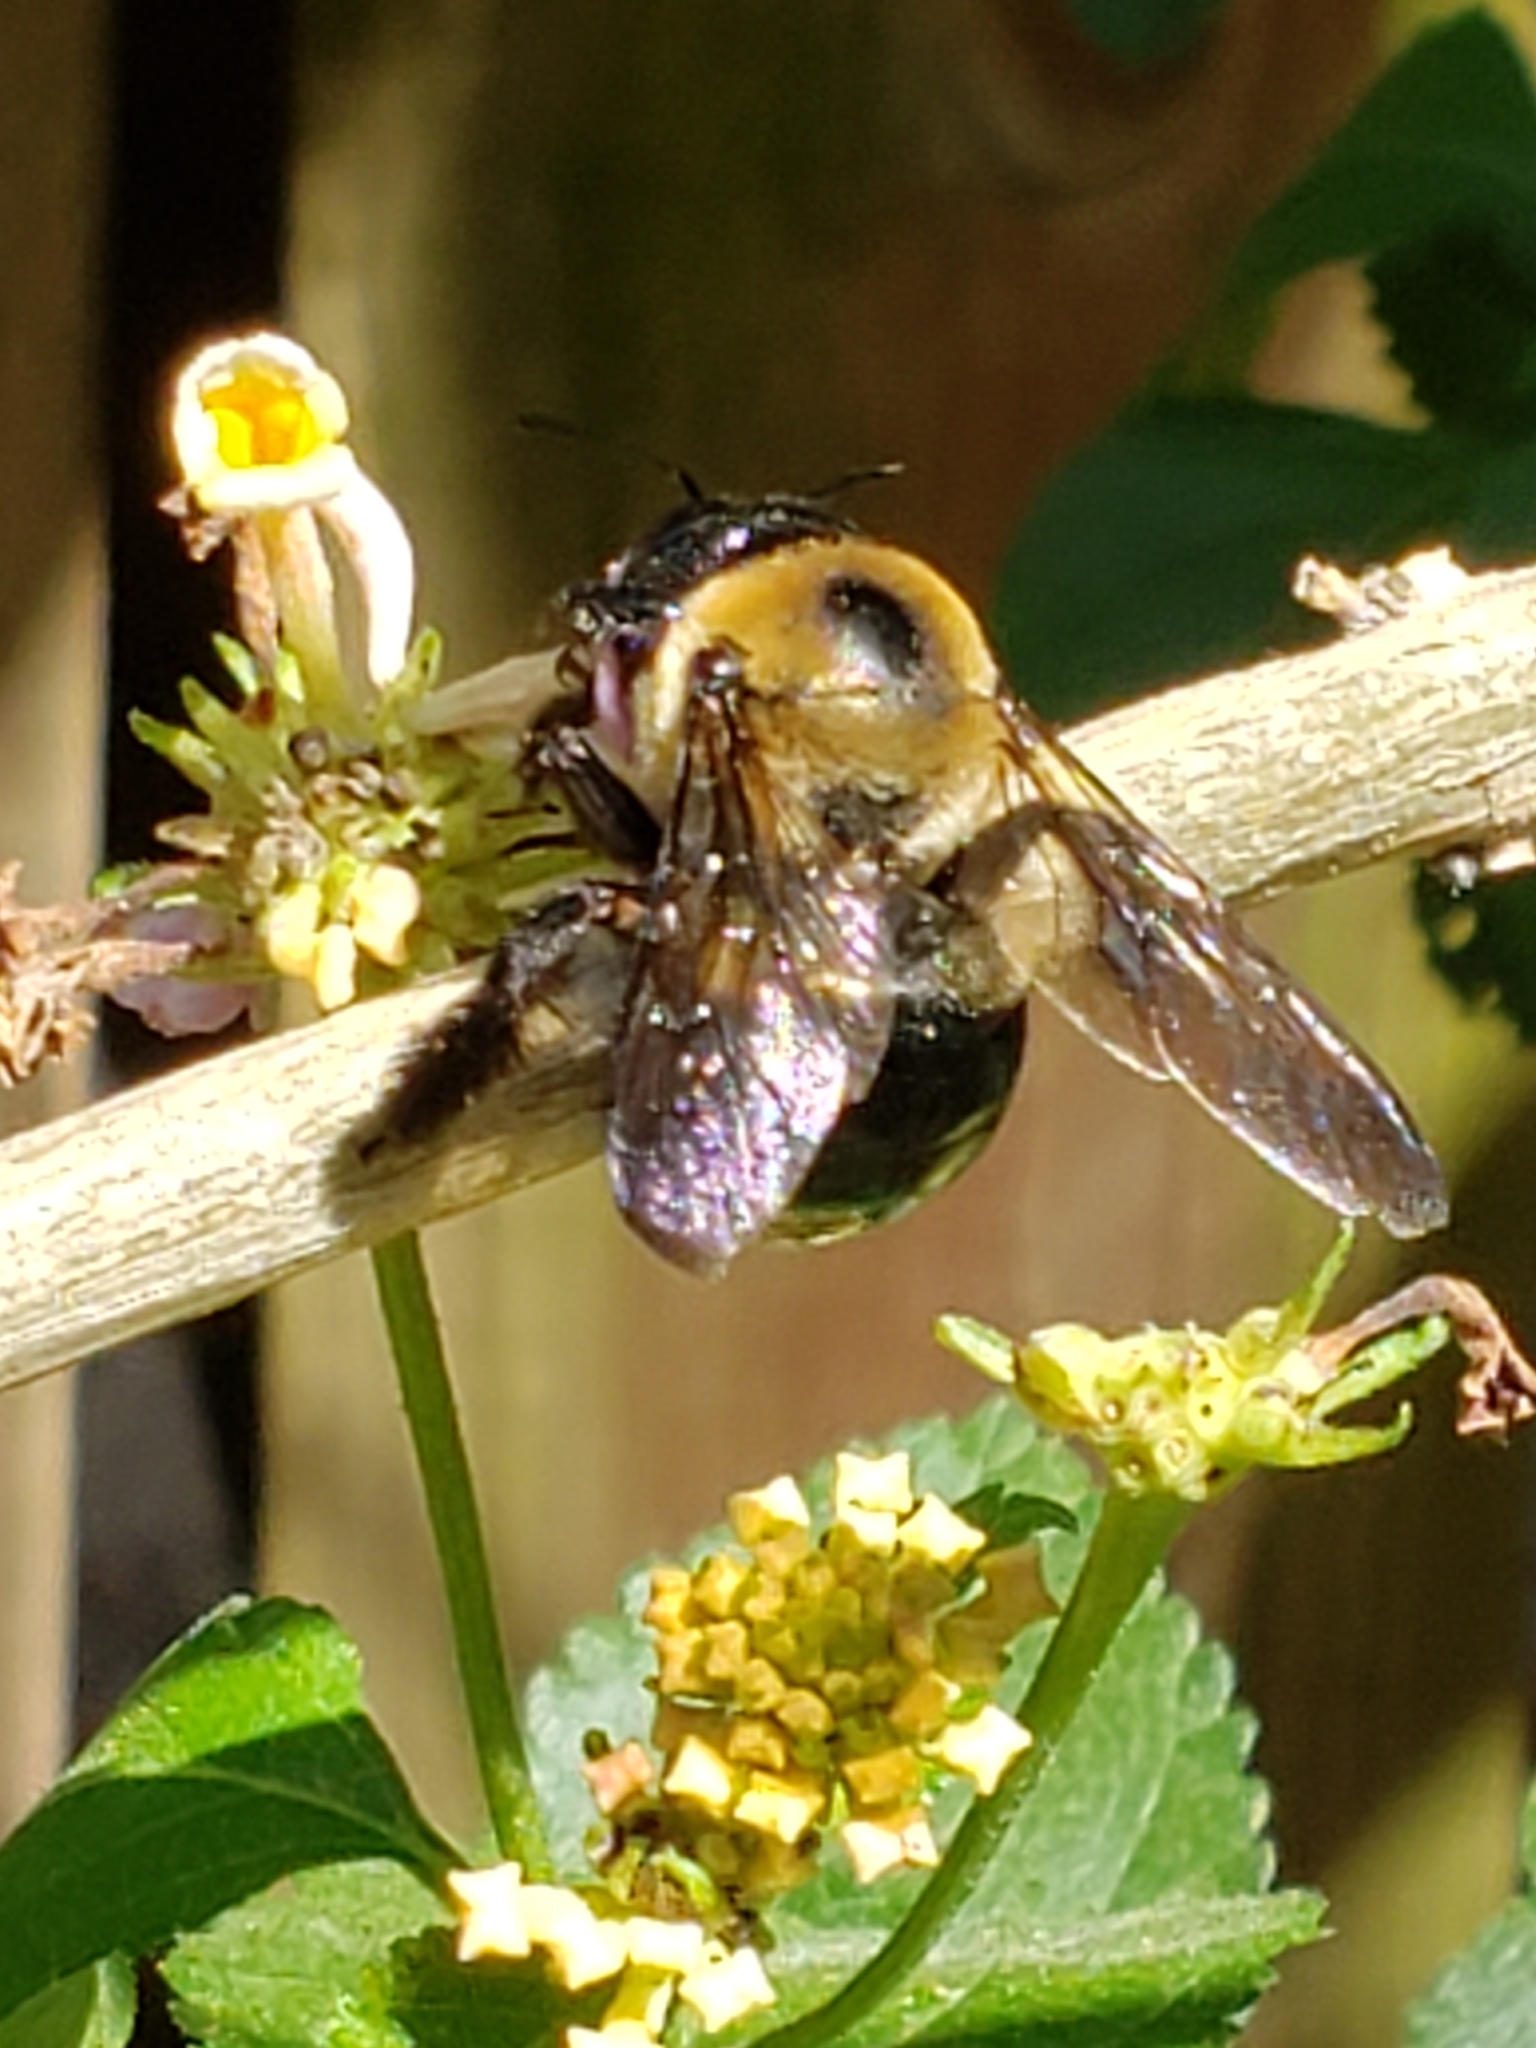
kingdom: Animalia
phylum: Arthropoda
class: Insecta
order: Hymenoptera
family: Apidae
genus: Xylocopa
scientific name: Xylocopa virginica
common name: Carpenter bee
